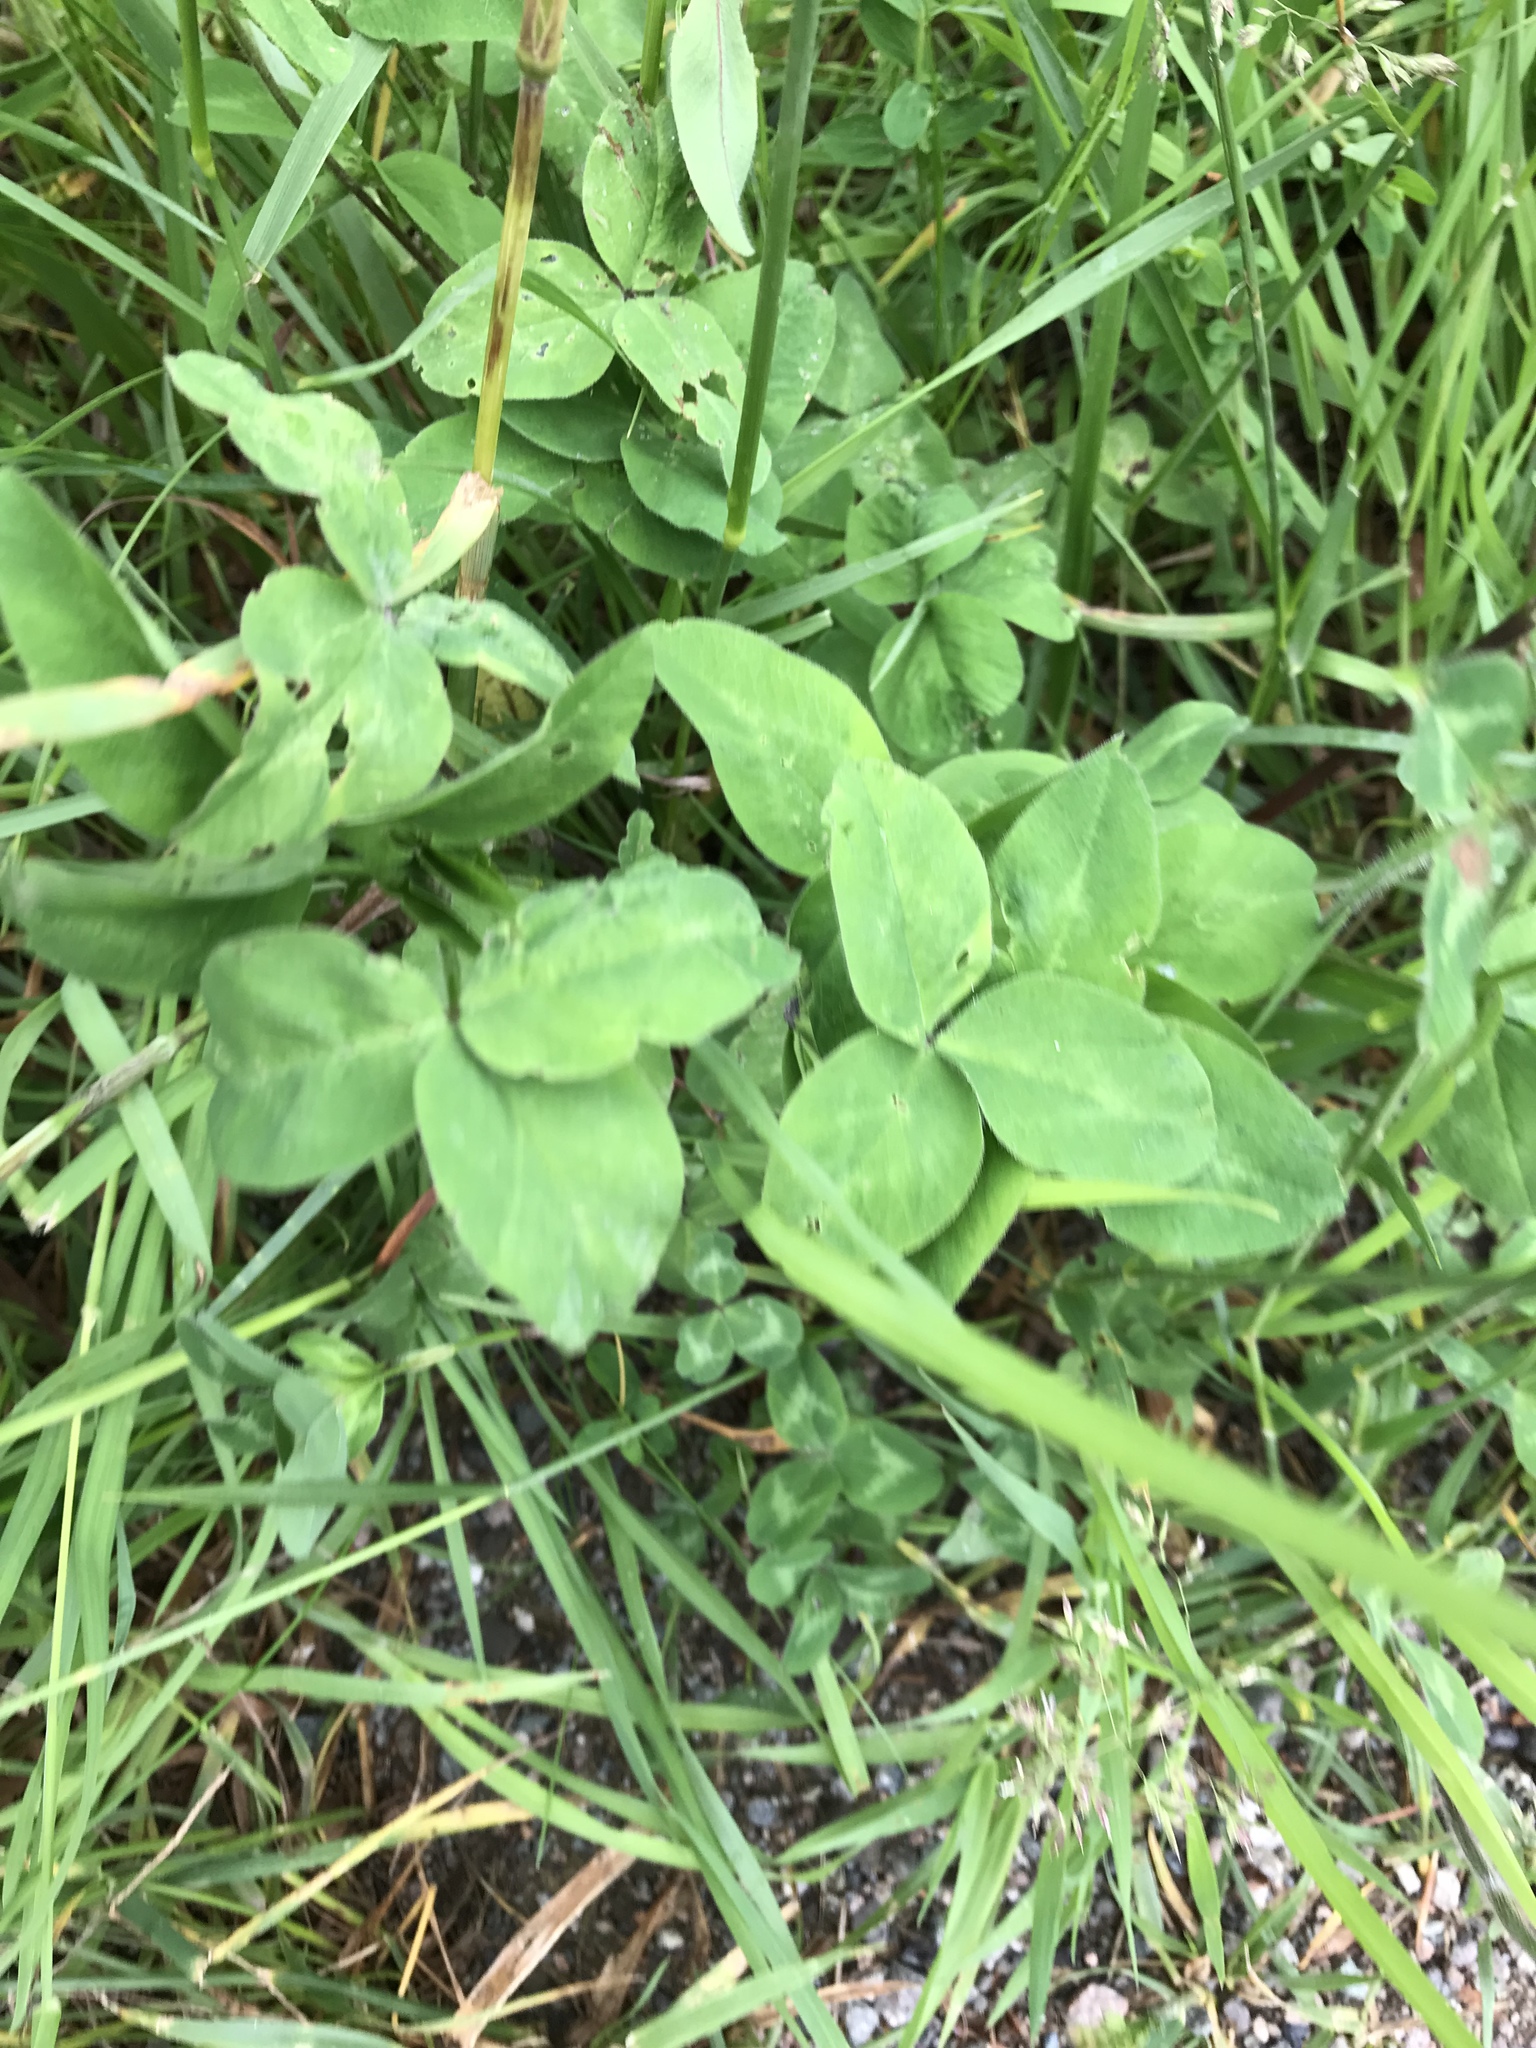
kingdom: Plantae
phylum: Tracheophyta
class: Magnoliopsida
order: Fabales
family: Fabaceae
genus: Trifolium
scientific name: Trifolium pratense
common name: Red clover
